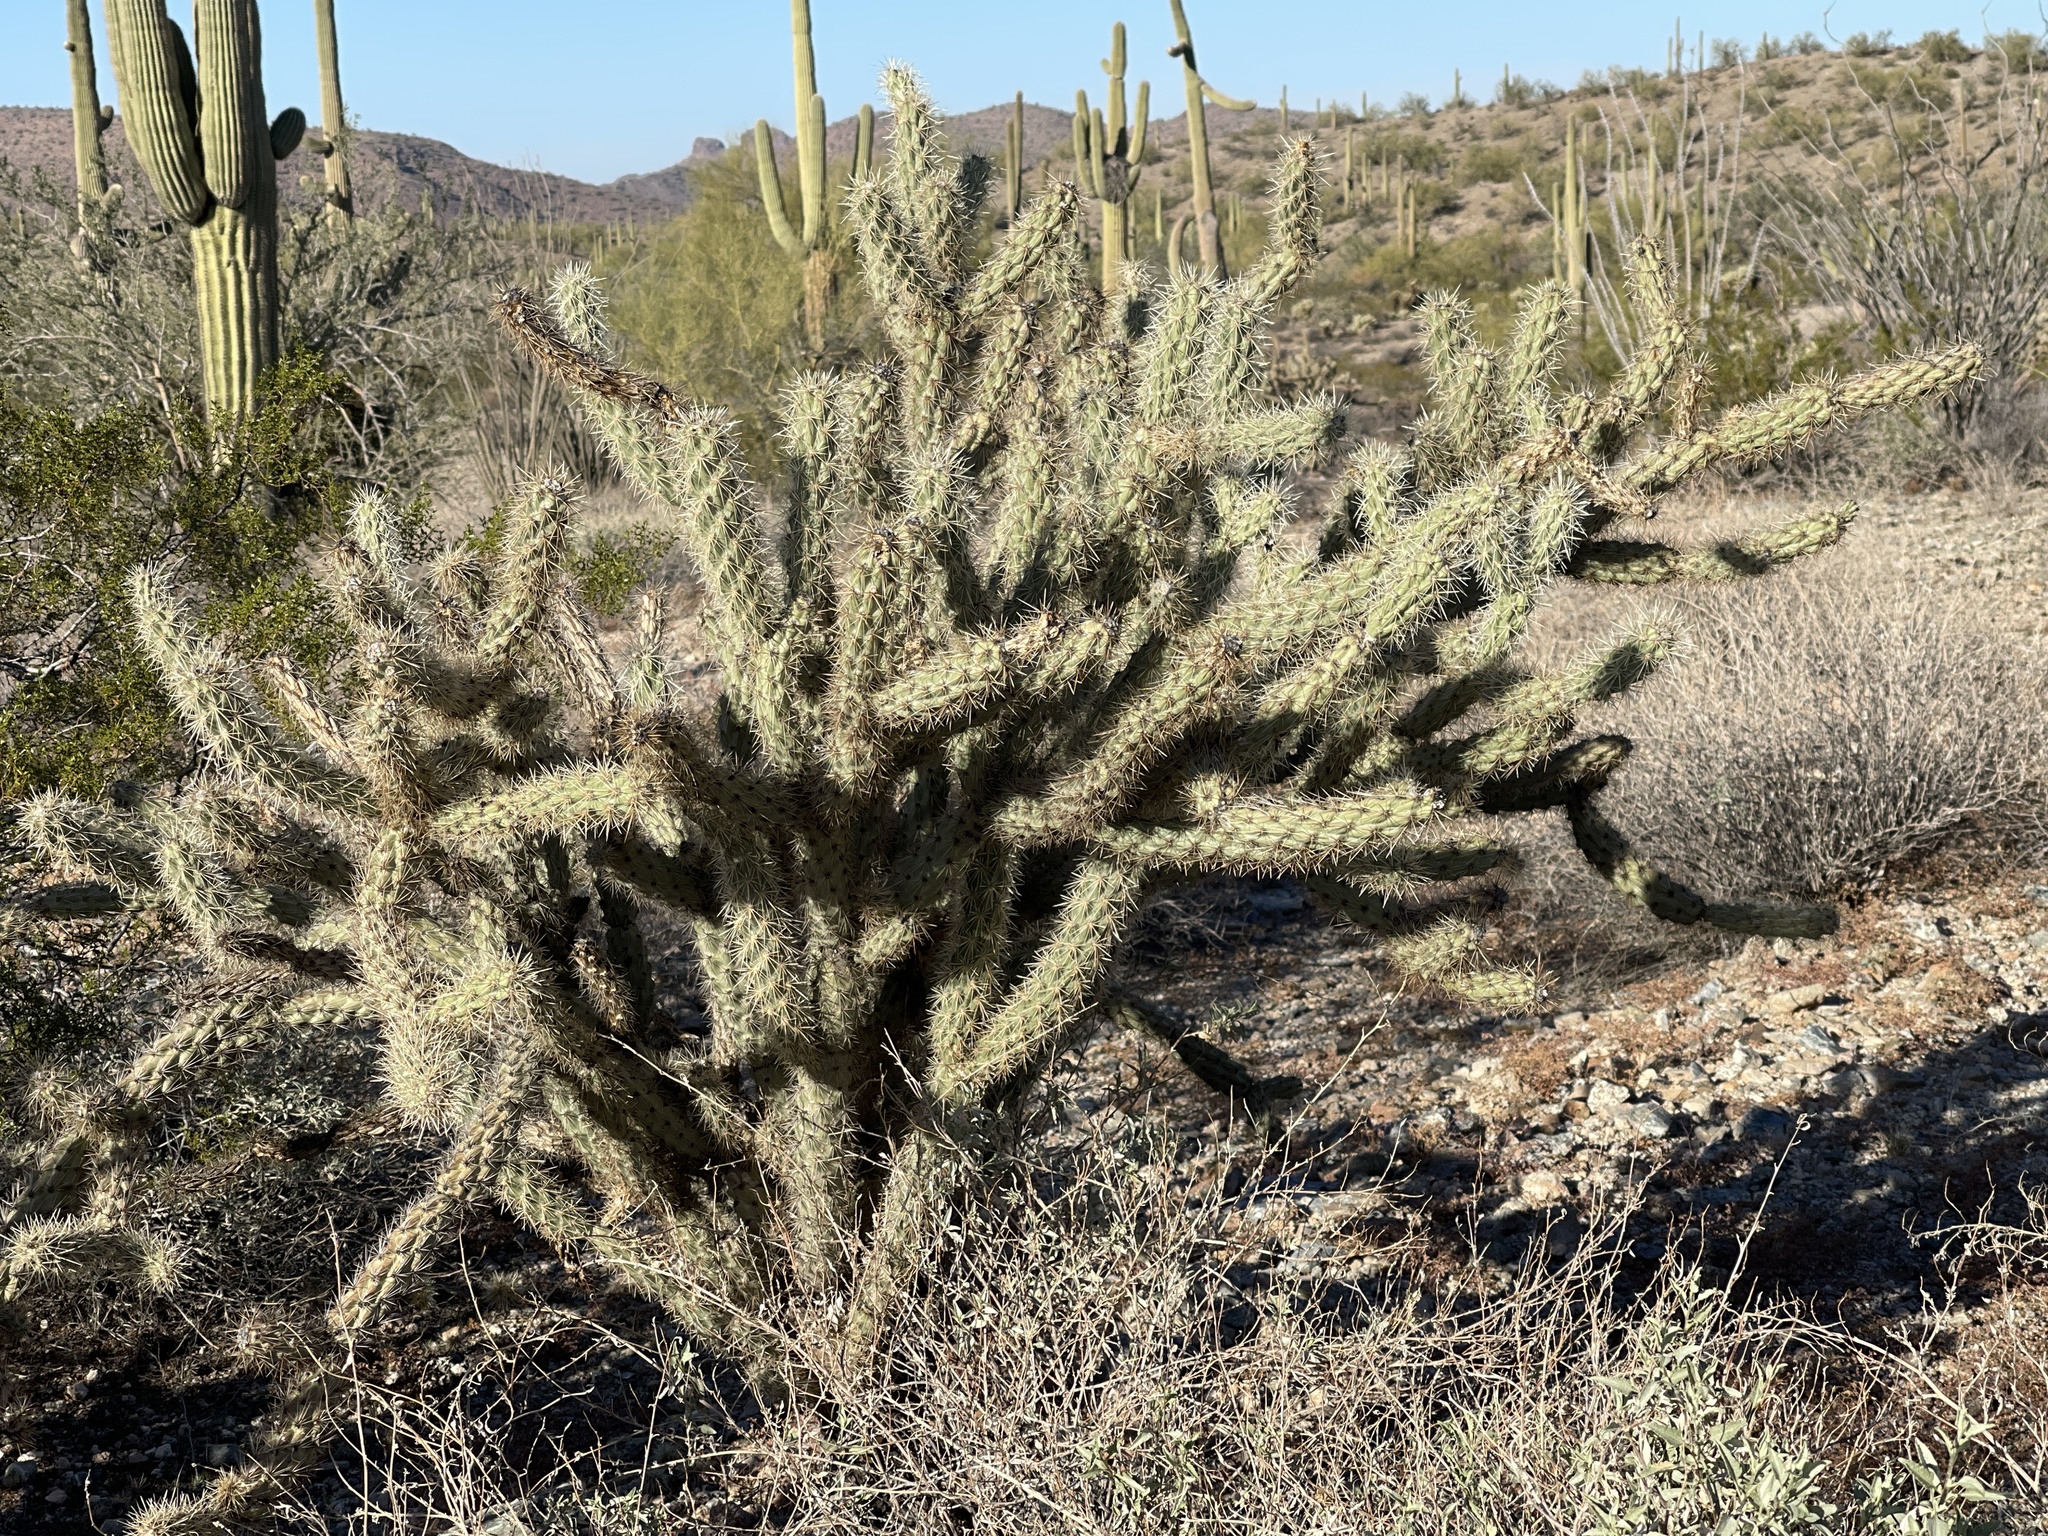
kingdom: Plantae
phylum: Tracheophyta
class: Magnoliopsida
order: Caryophyllales
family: Cactaceae
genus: Cylindropuntia
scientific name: Cylindropuntia acanthocarpa
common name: Buckhorn cholla
